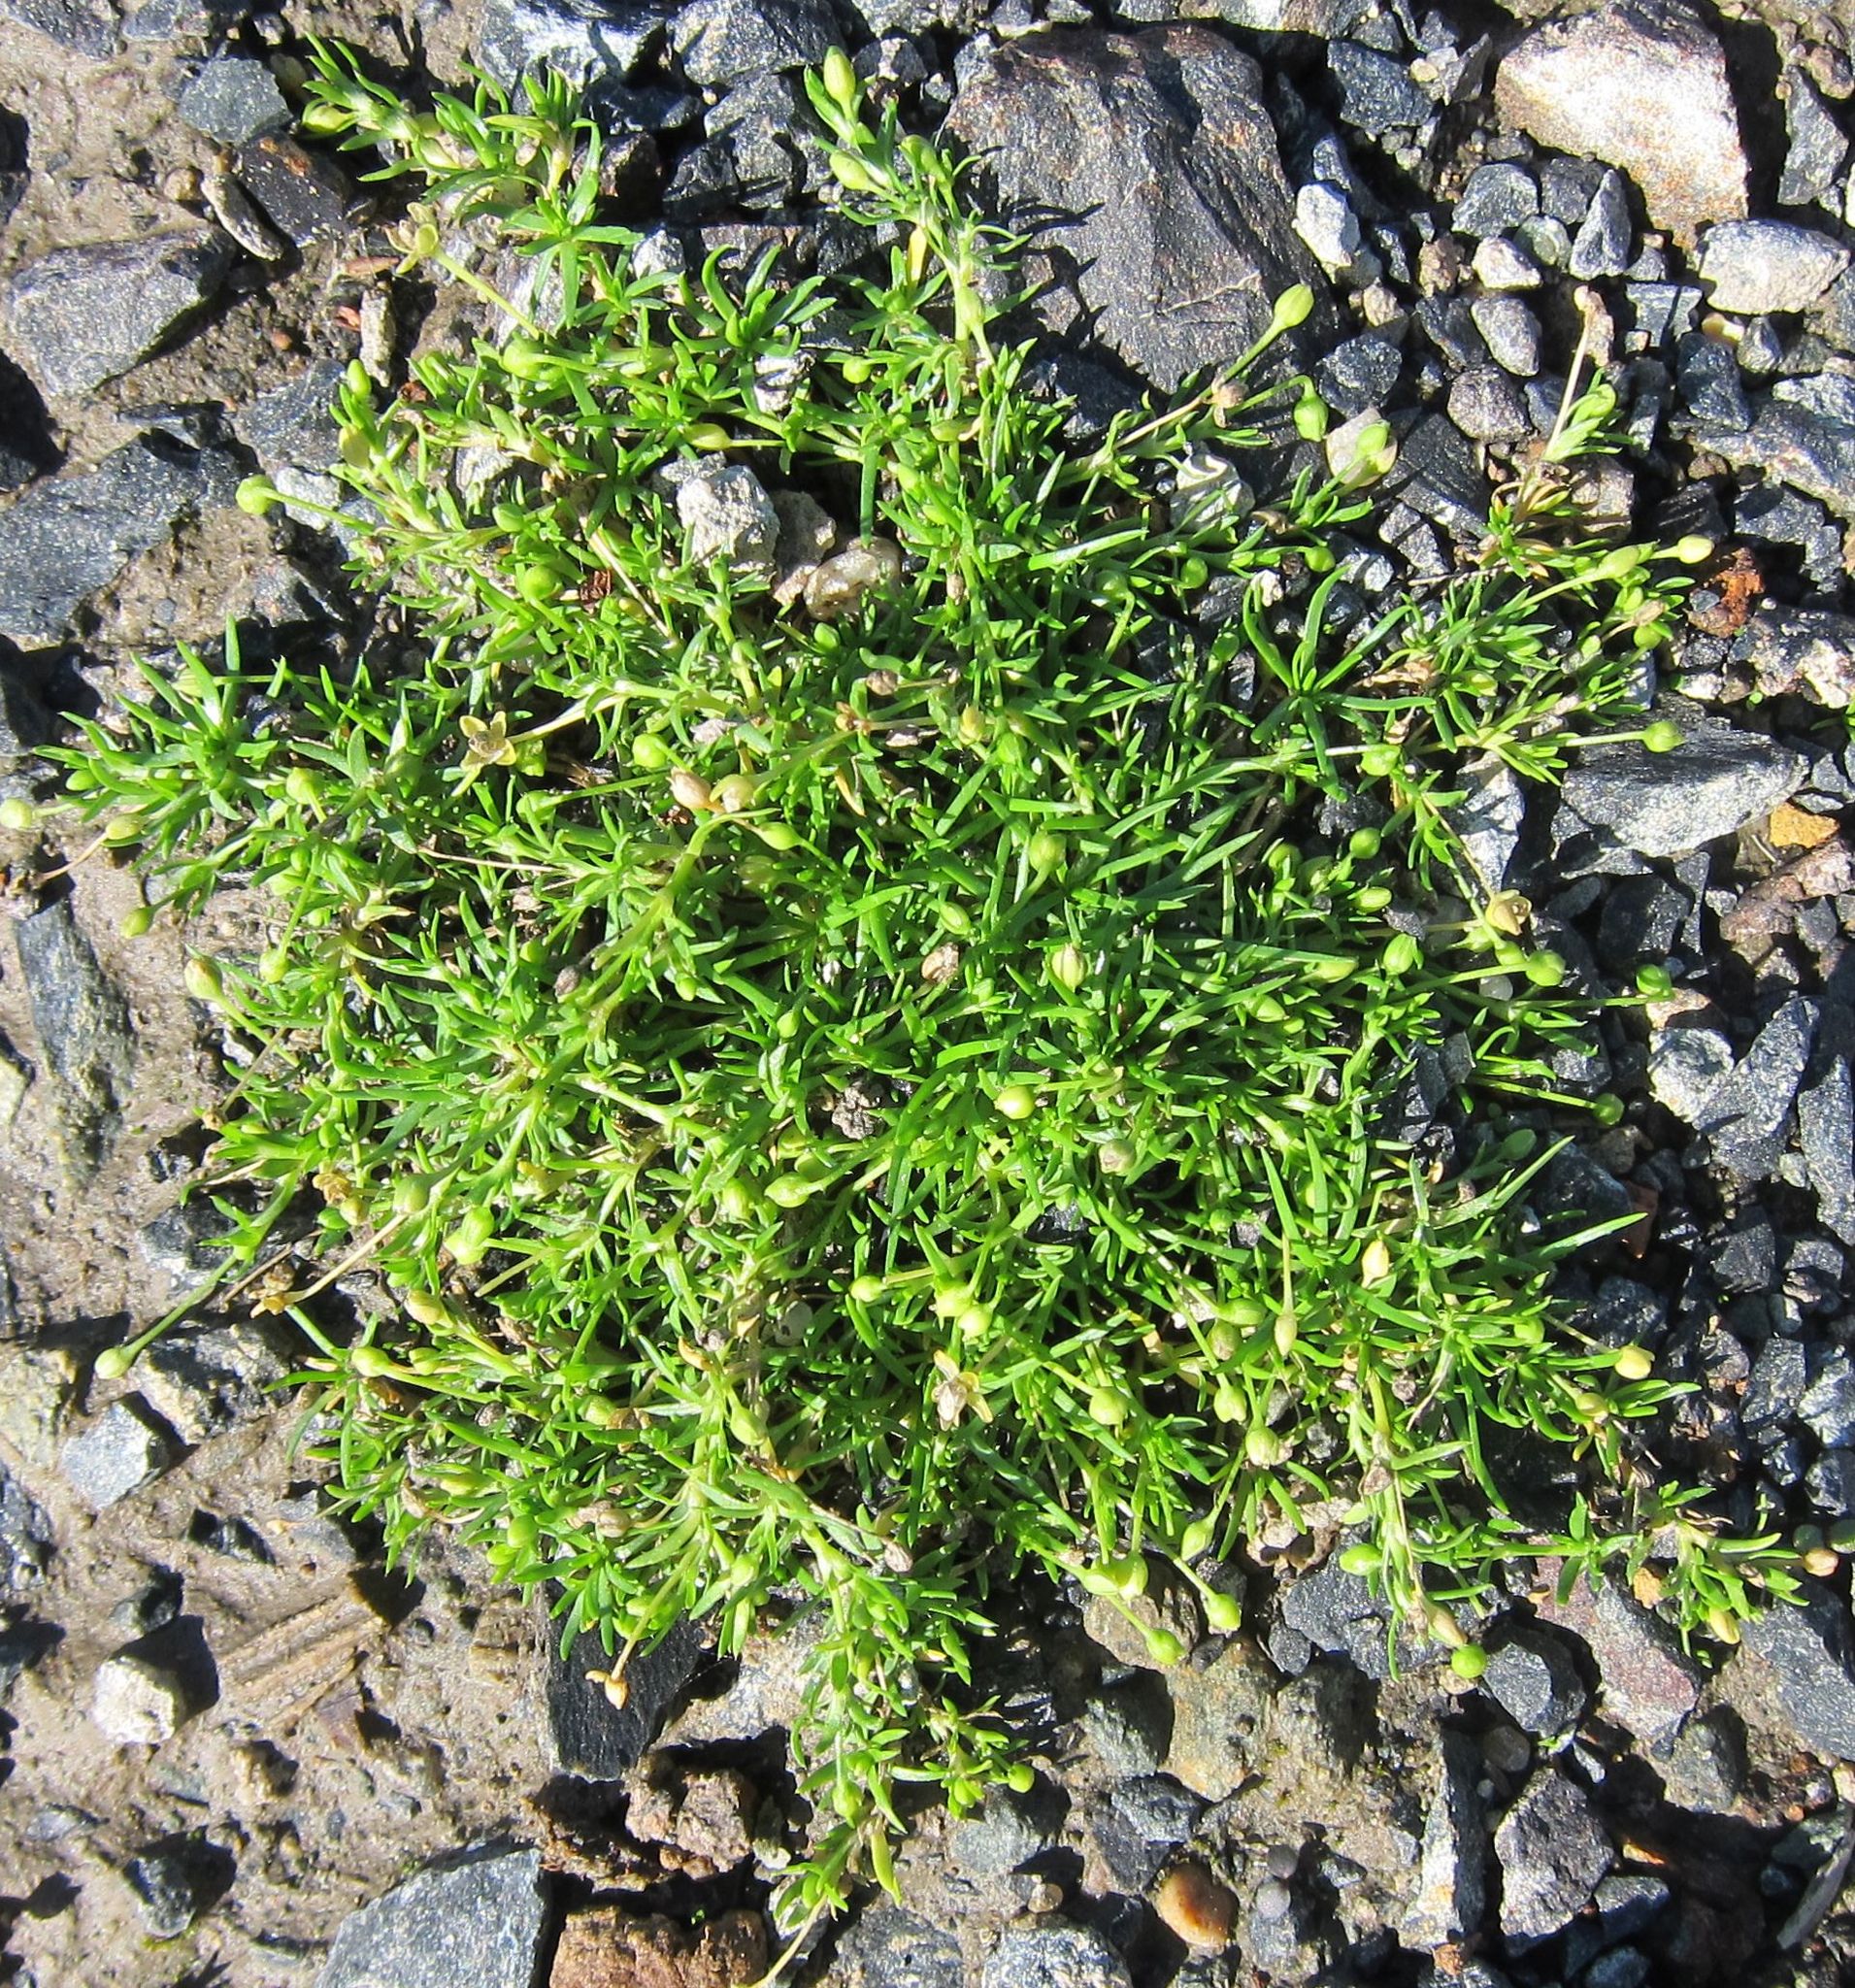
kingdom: Plantae
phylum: Tracheophyta
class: Magnoliopsida
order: Caryophyllales
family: Caryophyllaceae
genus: Sagina
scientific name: Sagina procumbens
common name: Procumbent pearlwort
